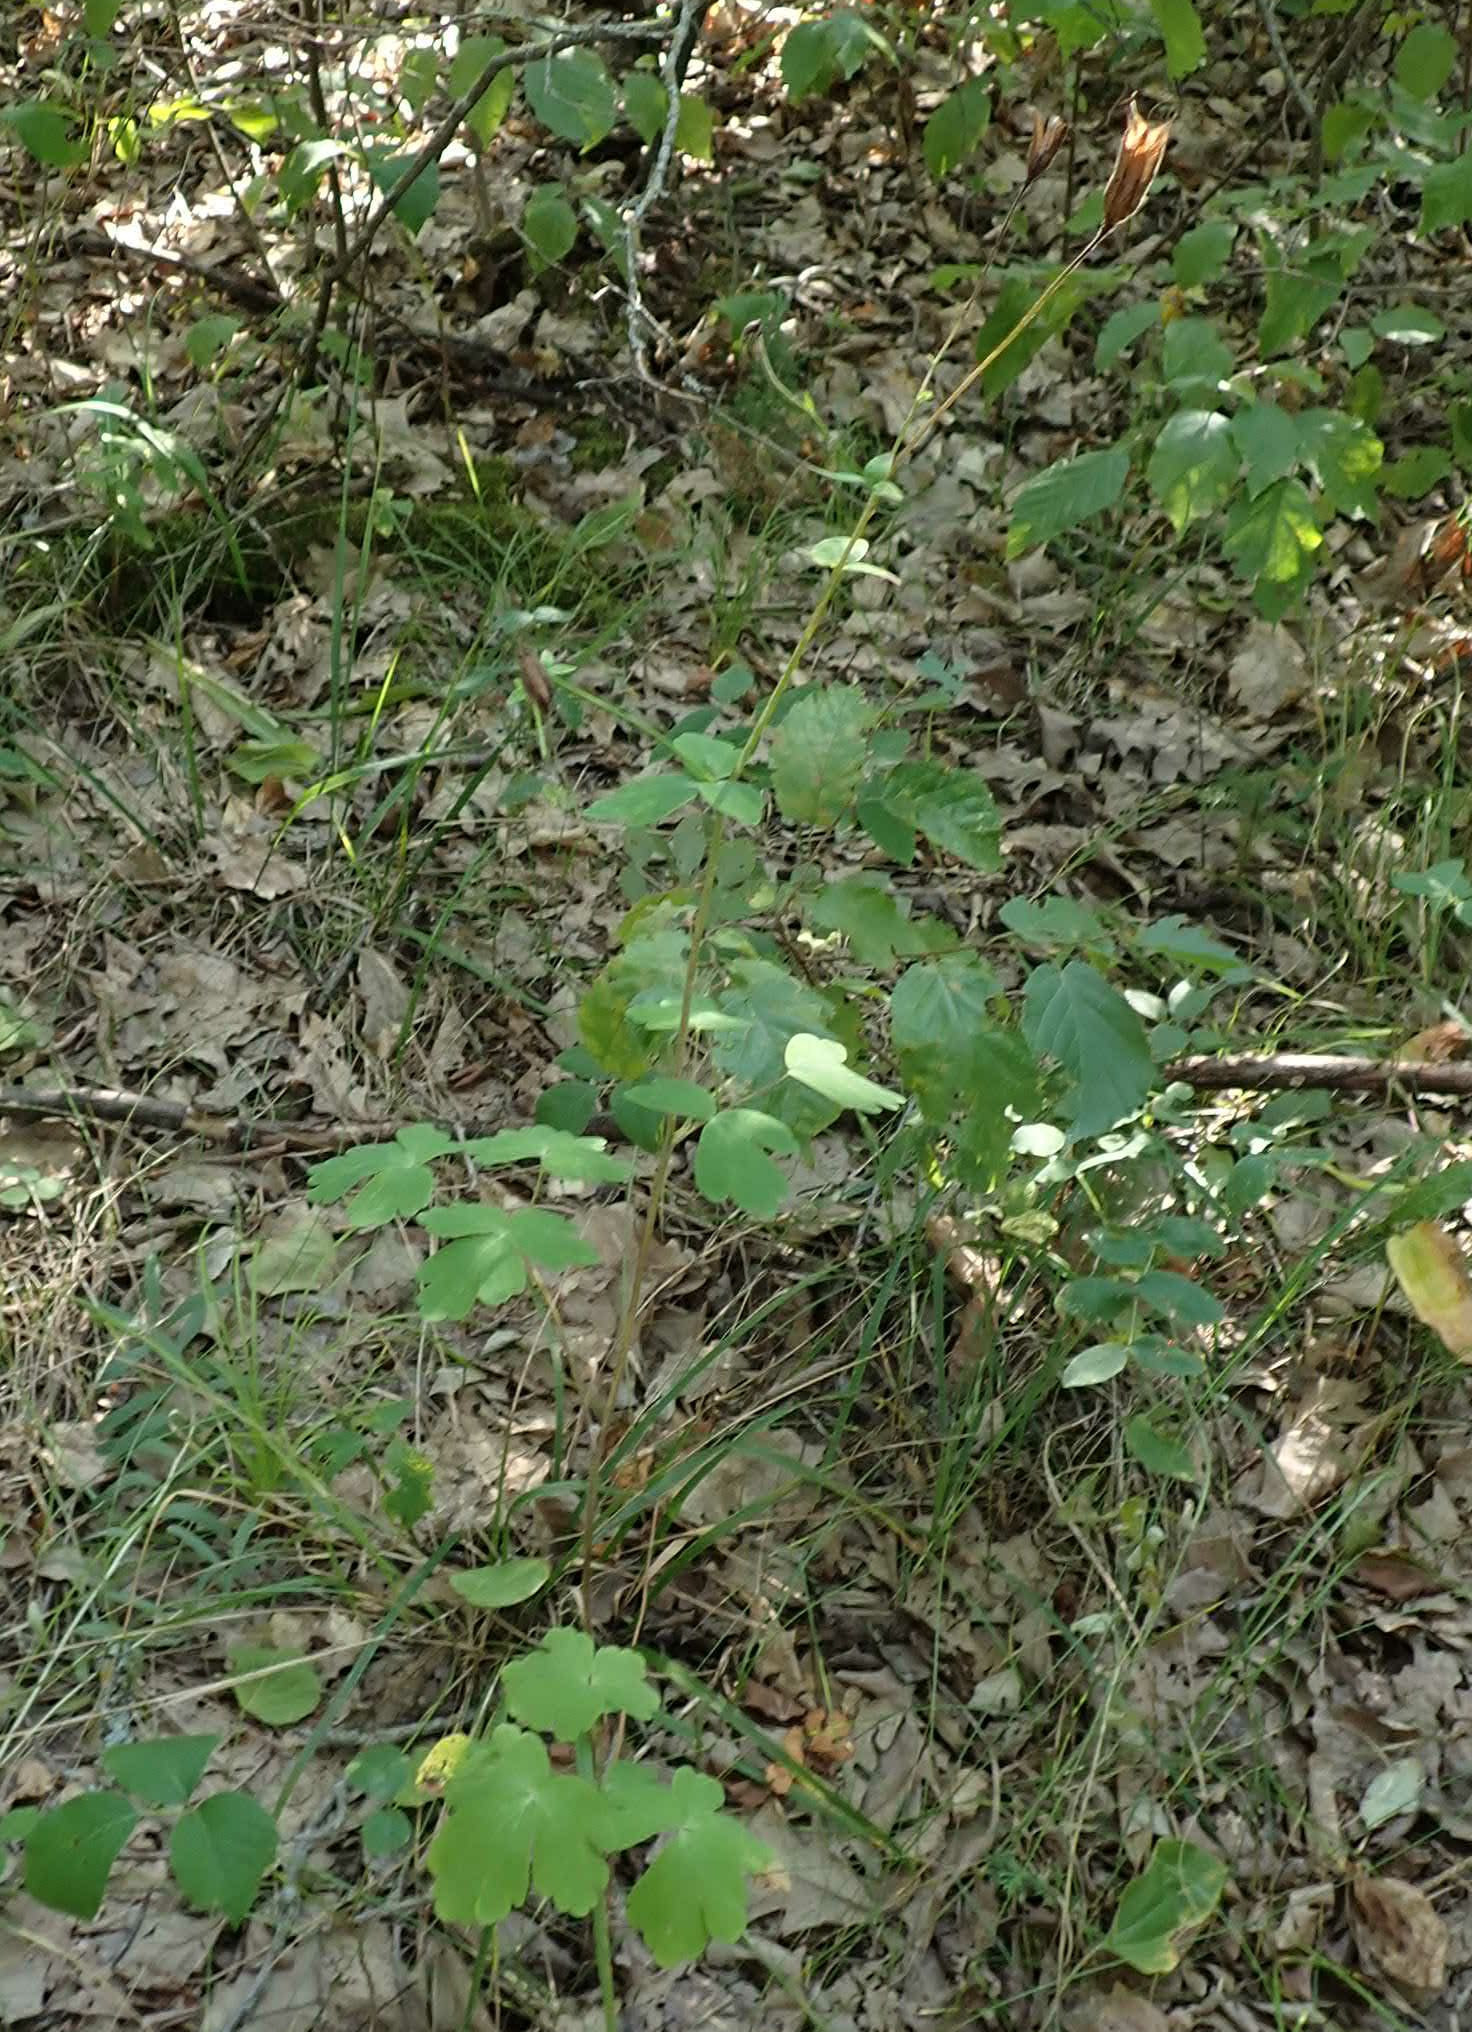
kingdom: Plantae
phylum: Tracheophyta
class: Magnoliopsida
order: Ranunculales
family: Ranunculaceae
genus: Aquilegia
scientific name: Aquilegia canadensis
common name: American columbine
